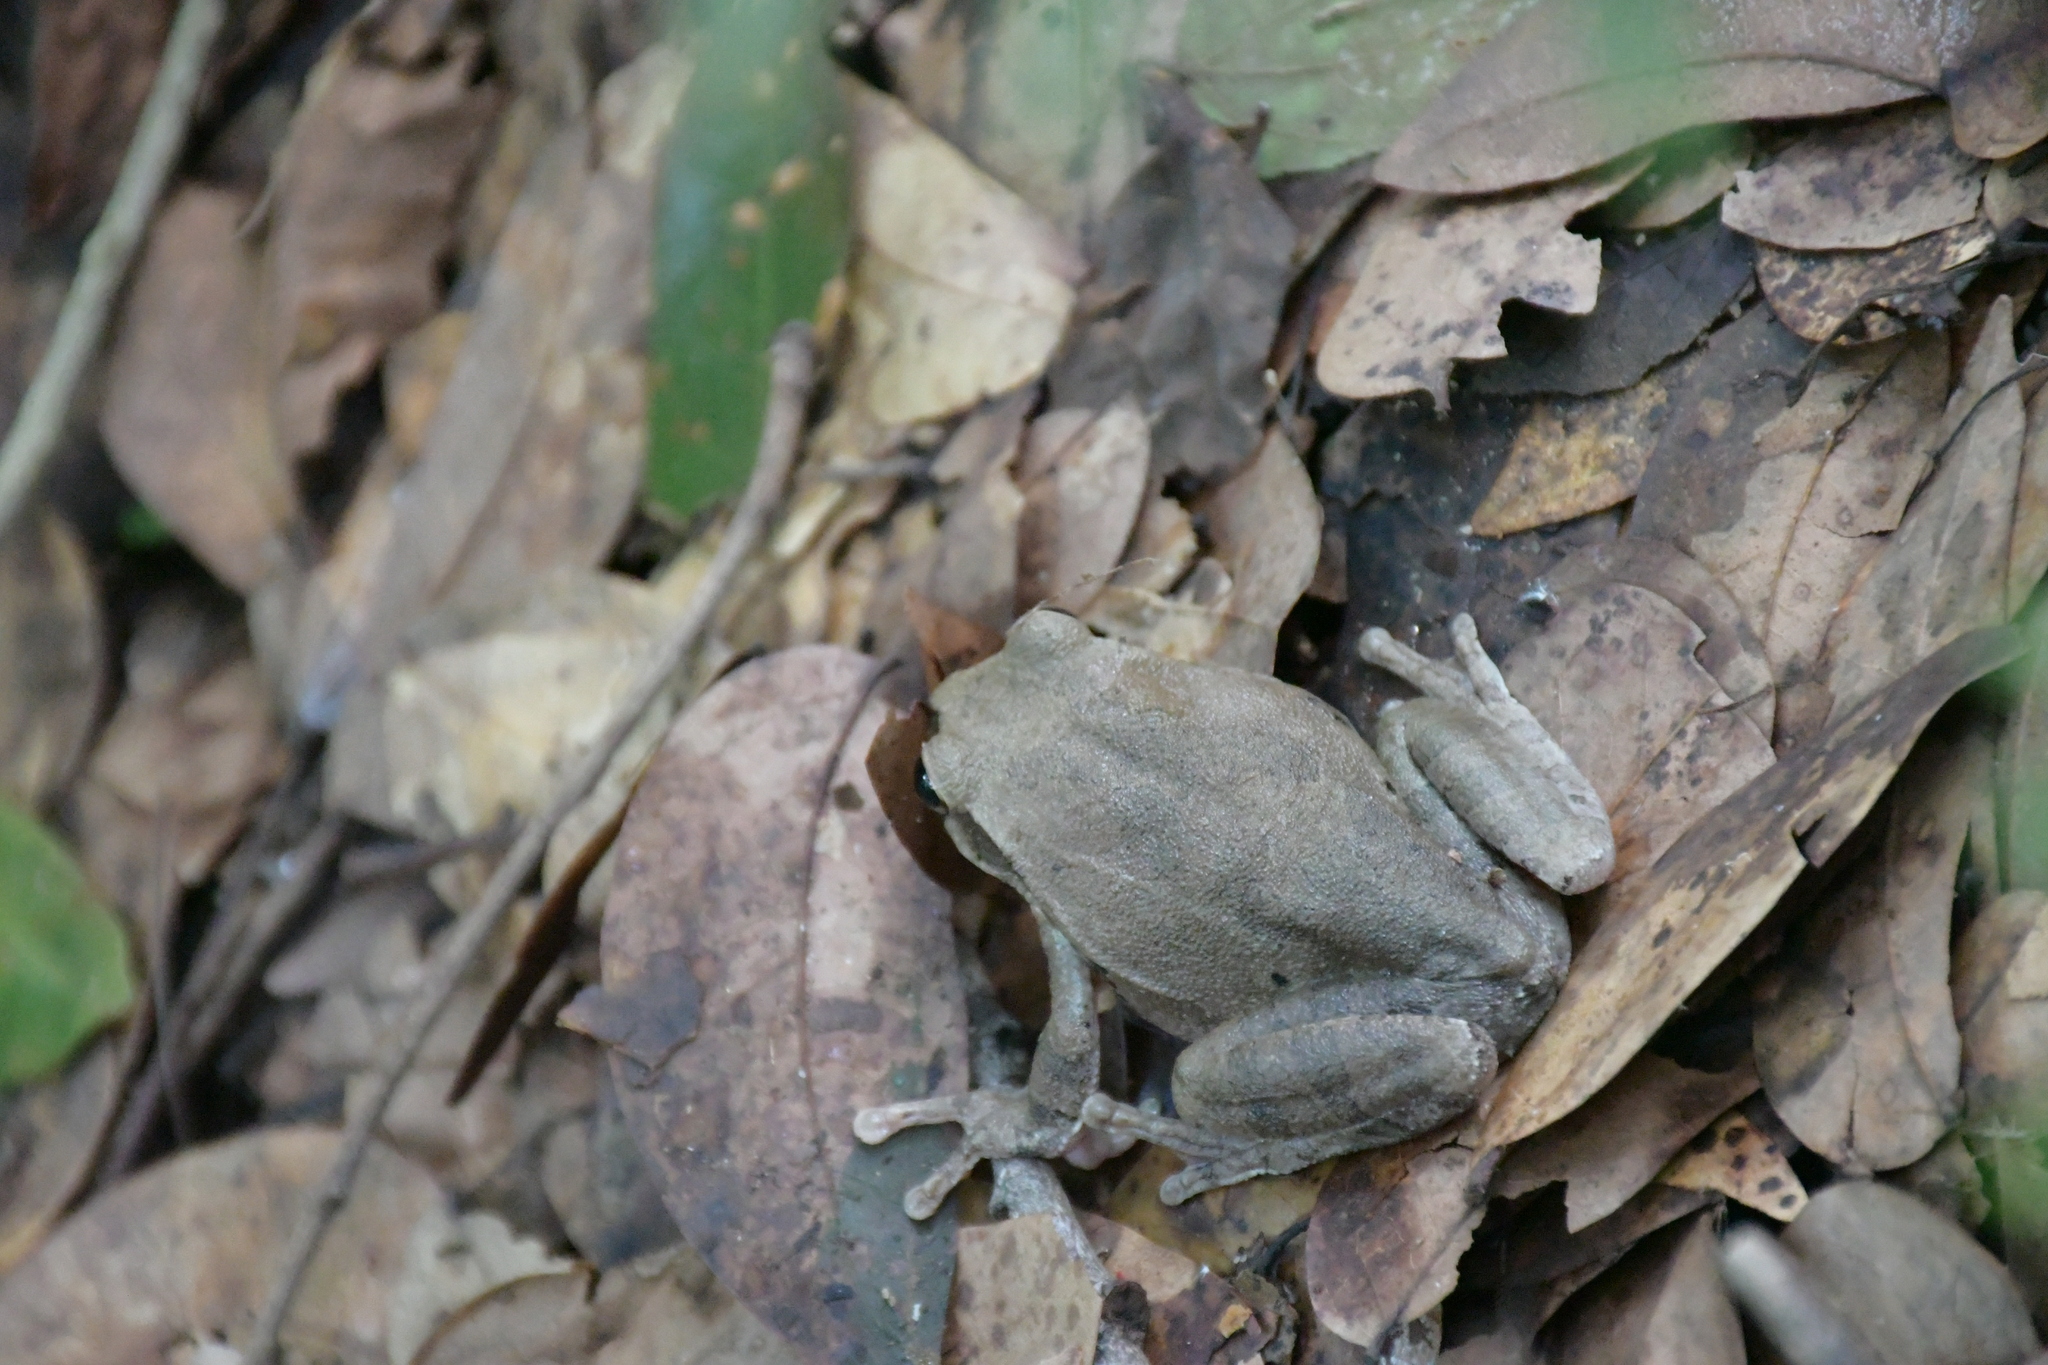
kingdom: Animalia
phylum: Chordata
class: Amphibia
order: Anura
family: Hylidae
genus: Smilisca
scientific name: Smilisca baudinii
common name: Mexican smilisca
